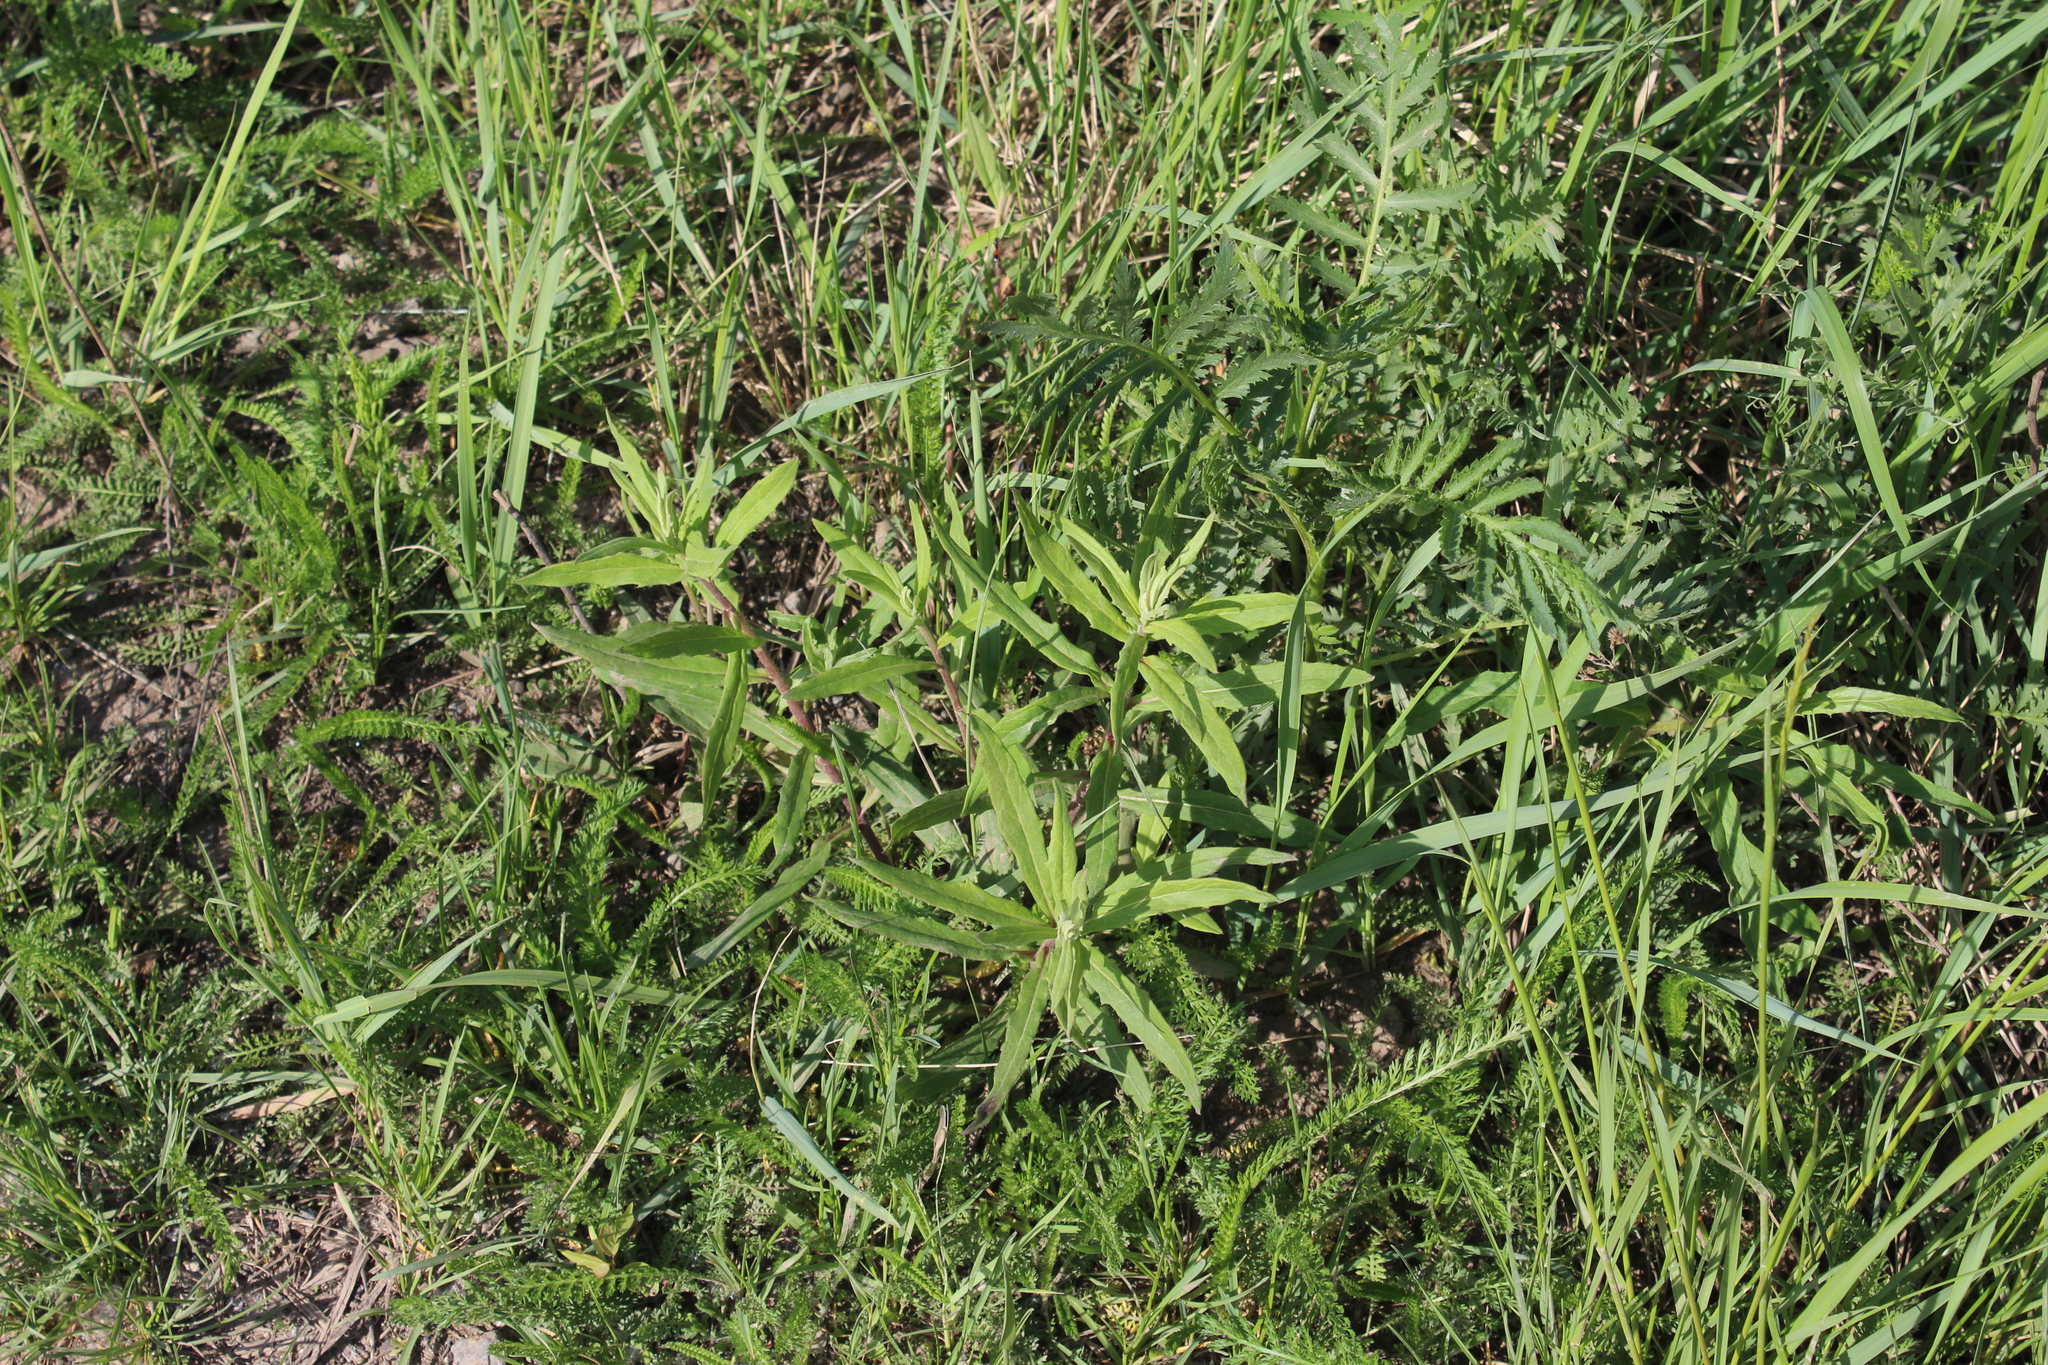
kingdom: Plantae
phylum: Tracheophyta
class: Magnoliopsida
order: Asterales
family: Asteraceae
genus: Hieracium
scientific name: Hieracium umbellatum
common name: Northern hawkweed
